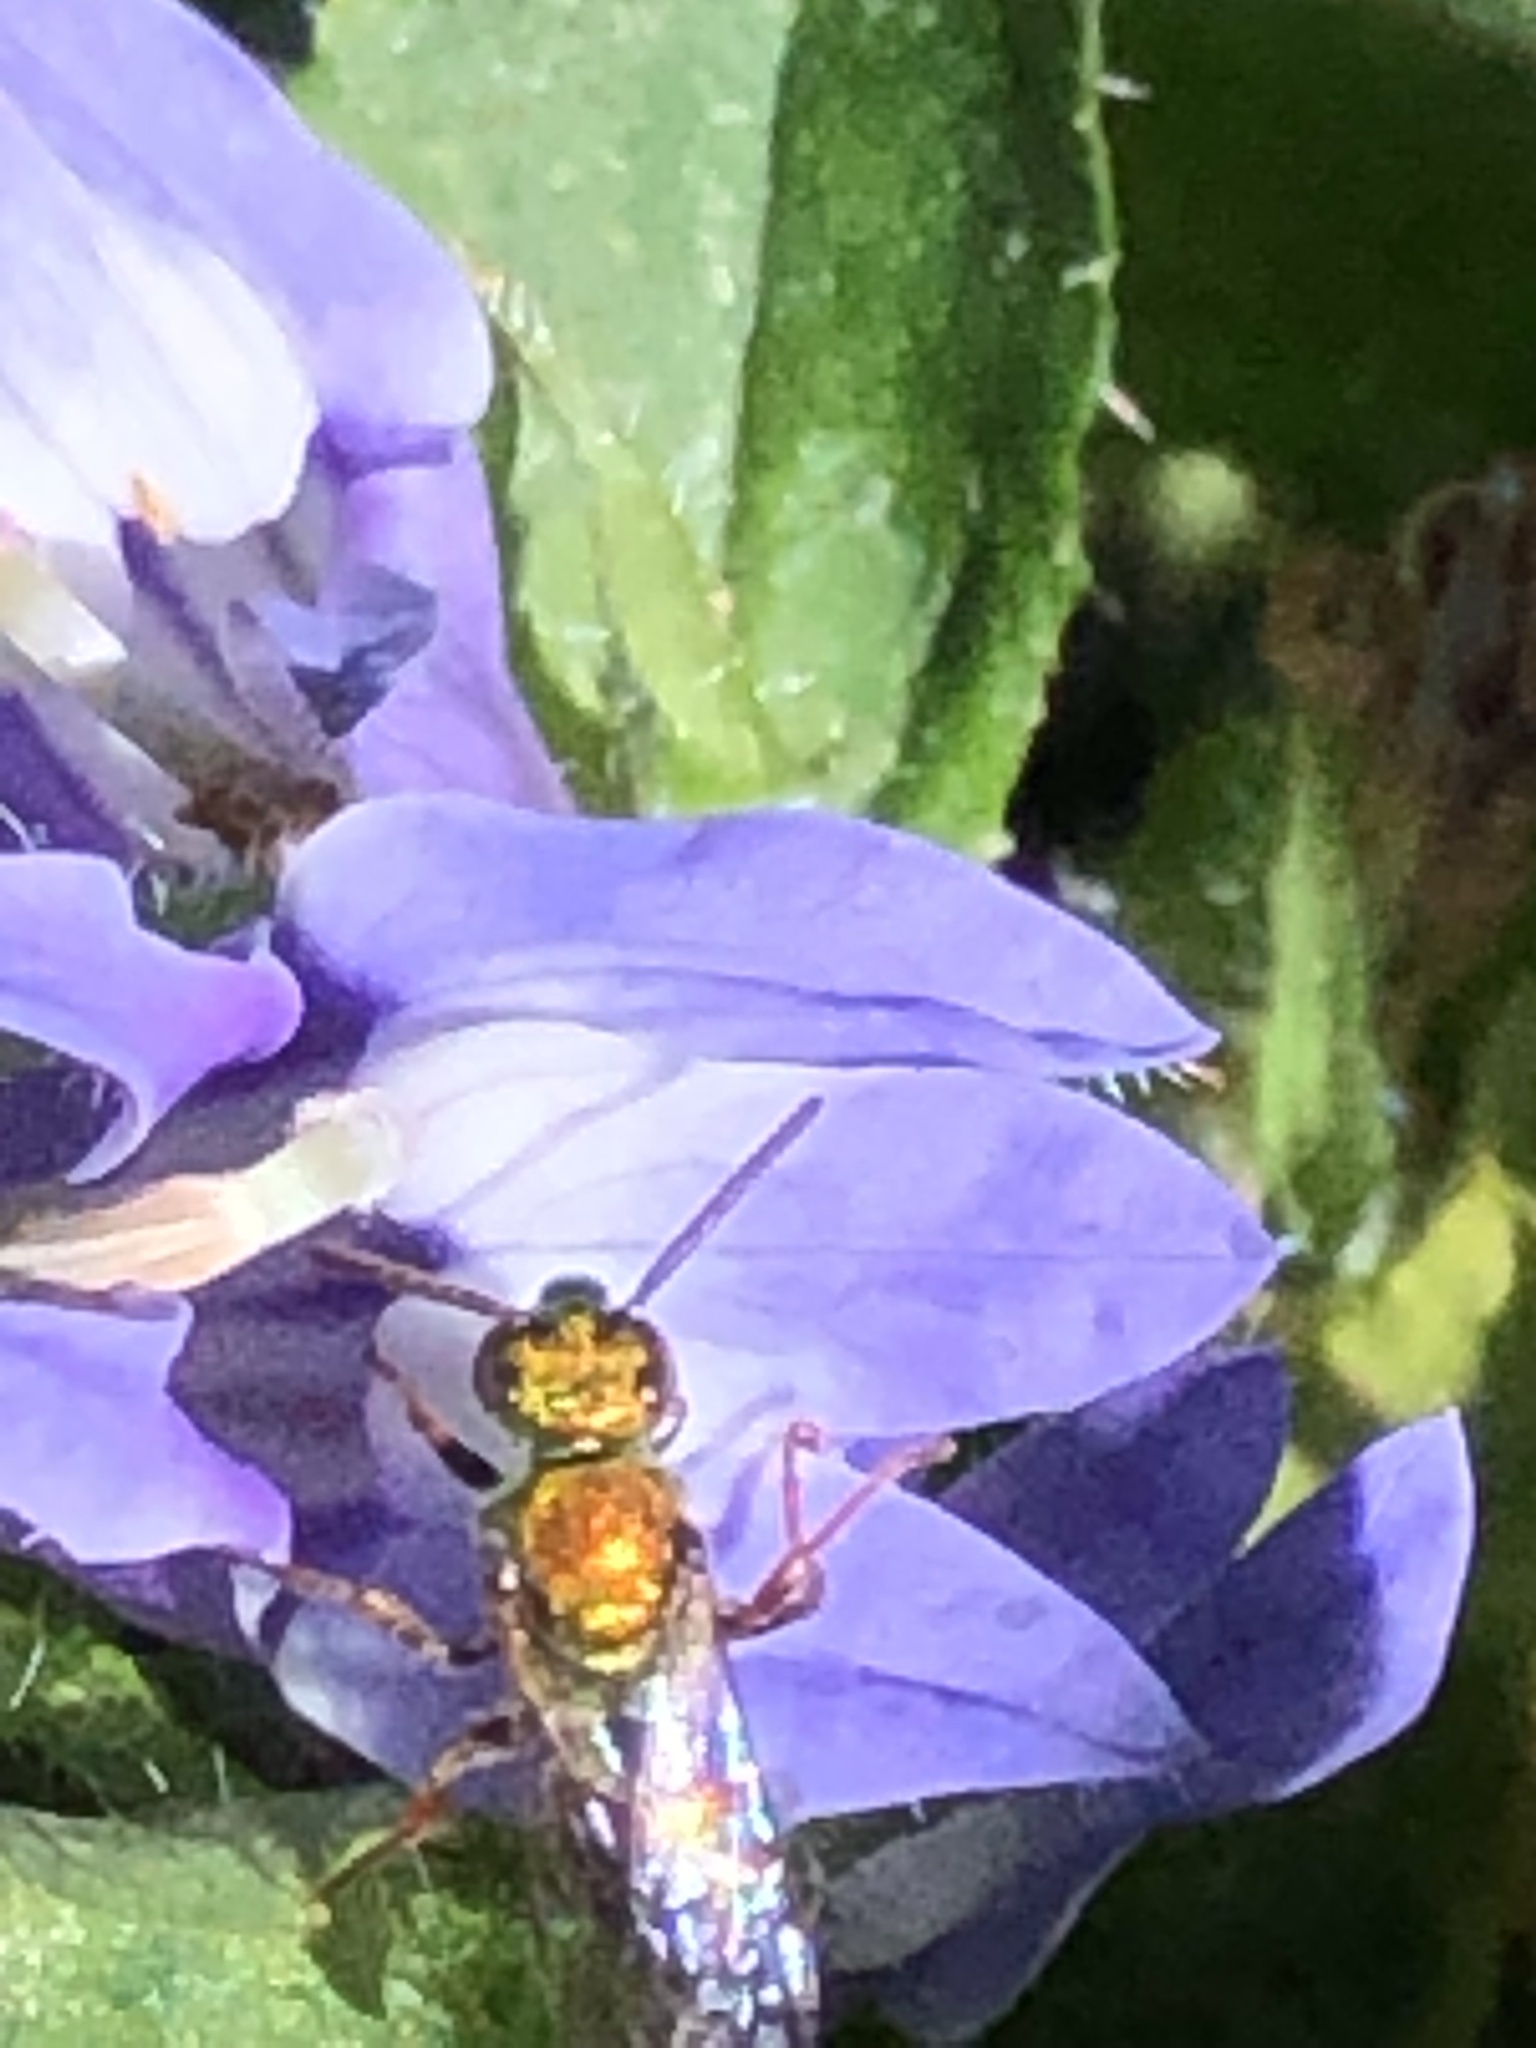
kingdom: Animalia
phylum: Arthropoda
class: Insecta
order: Hymenoptera
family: Halictidae
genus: Augochlora
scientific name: Augochlora pura
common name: Pure green sweat bee
